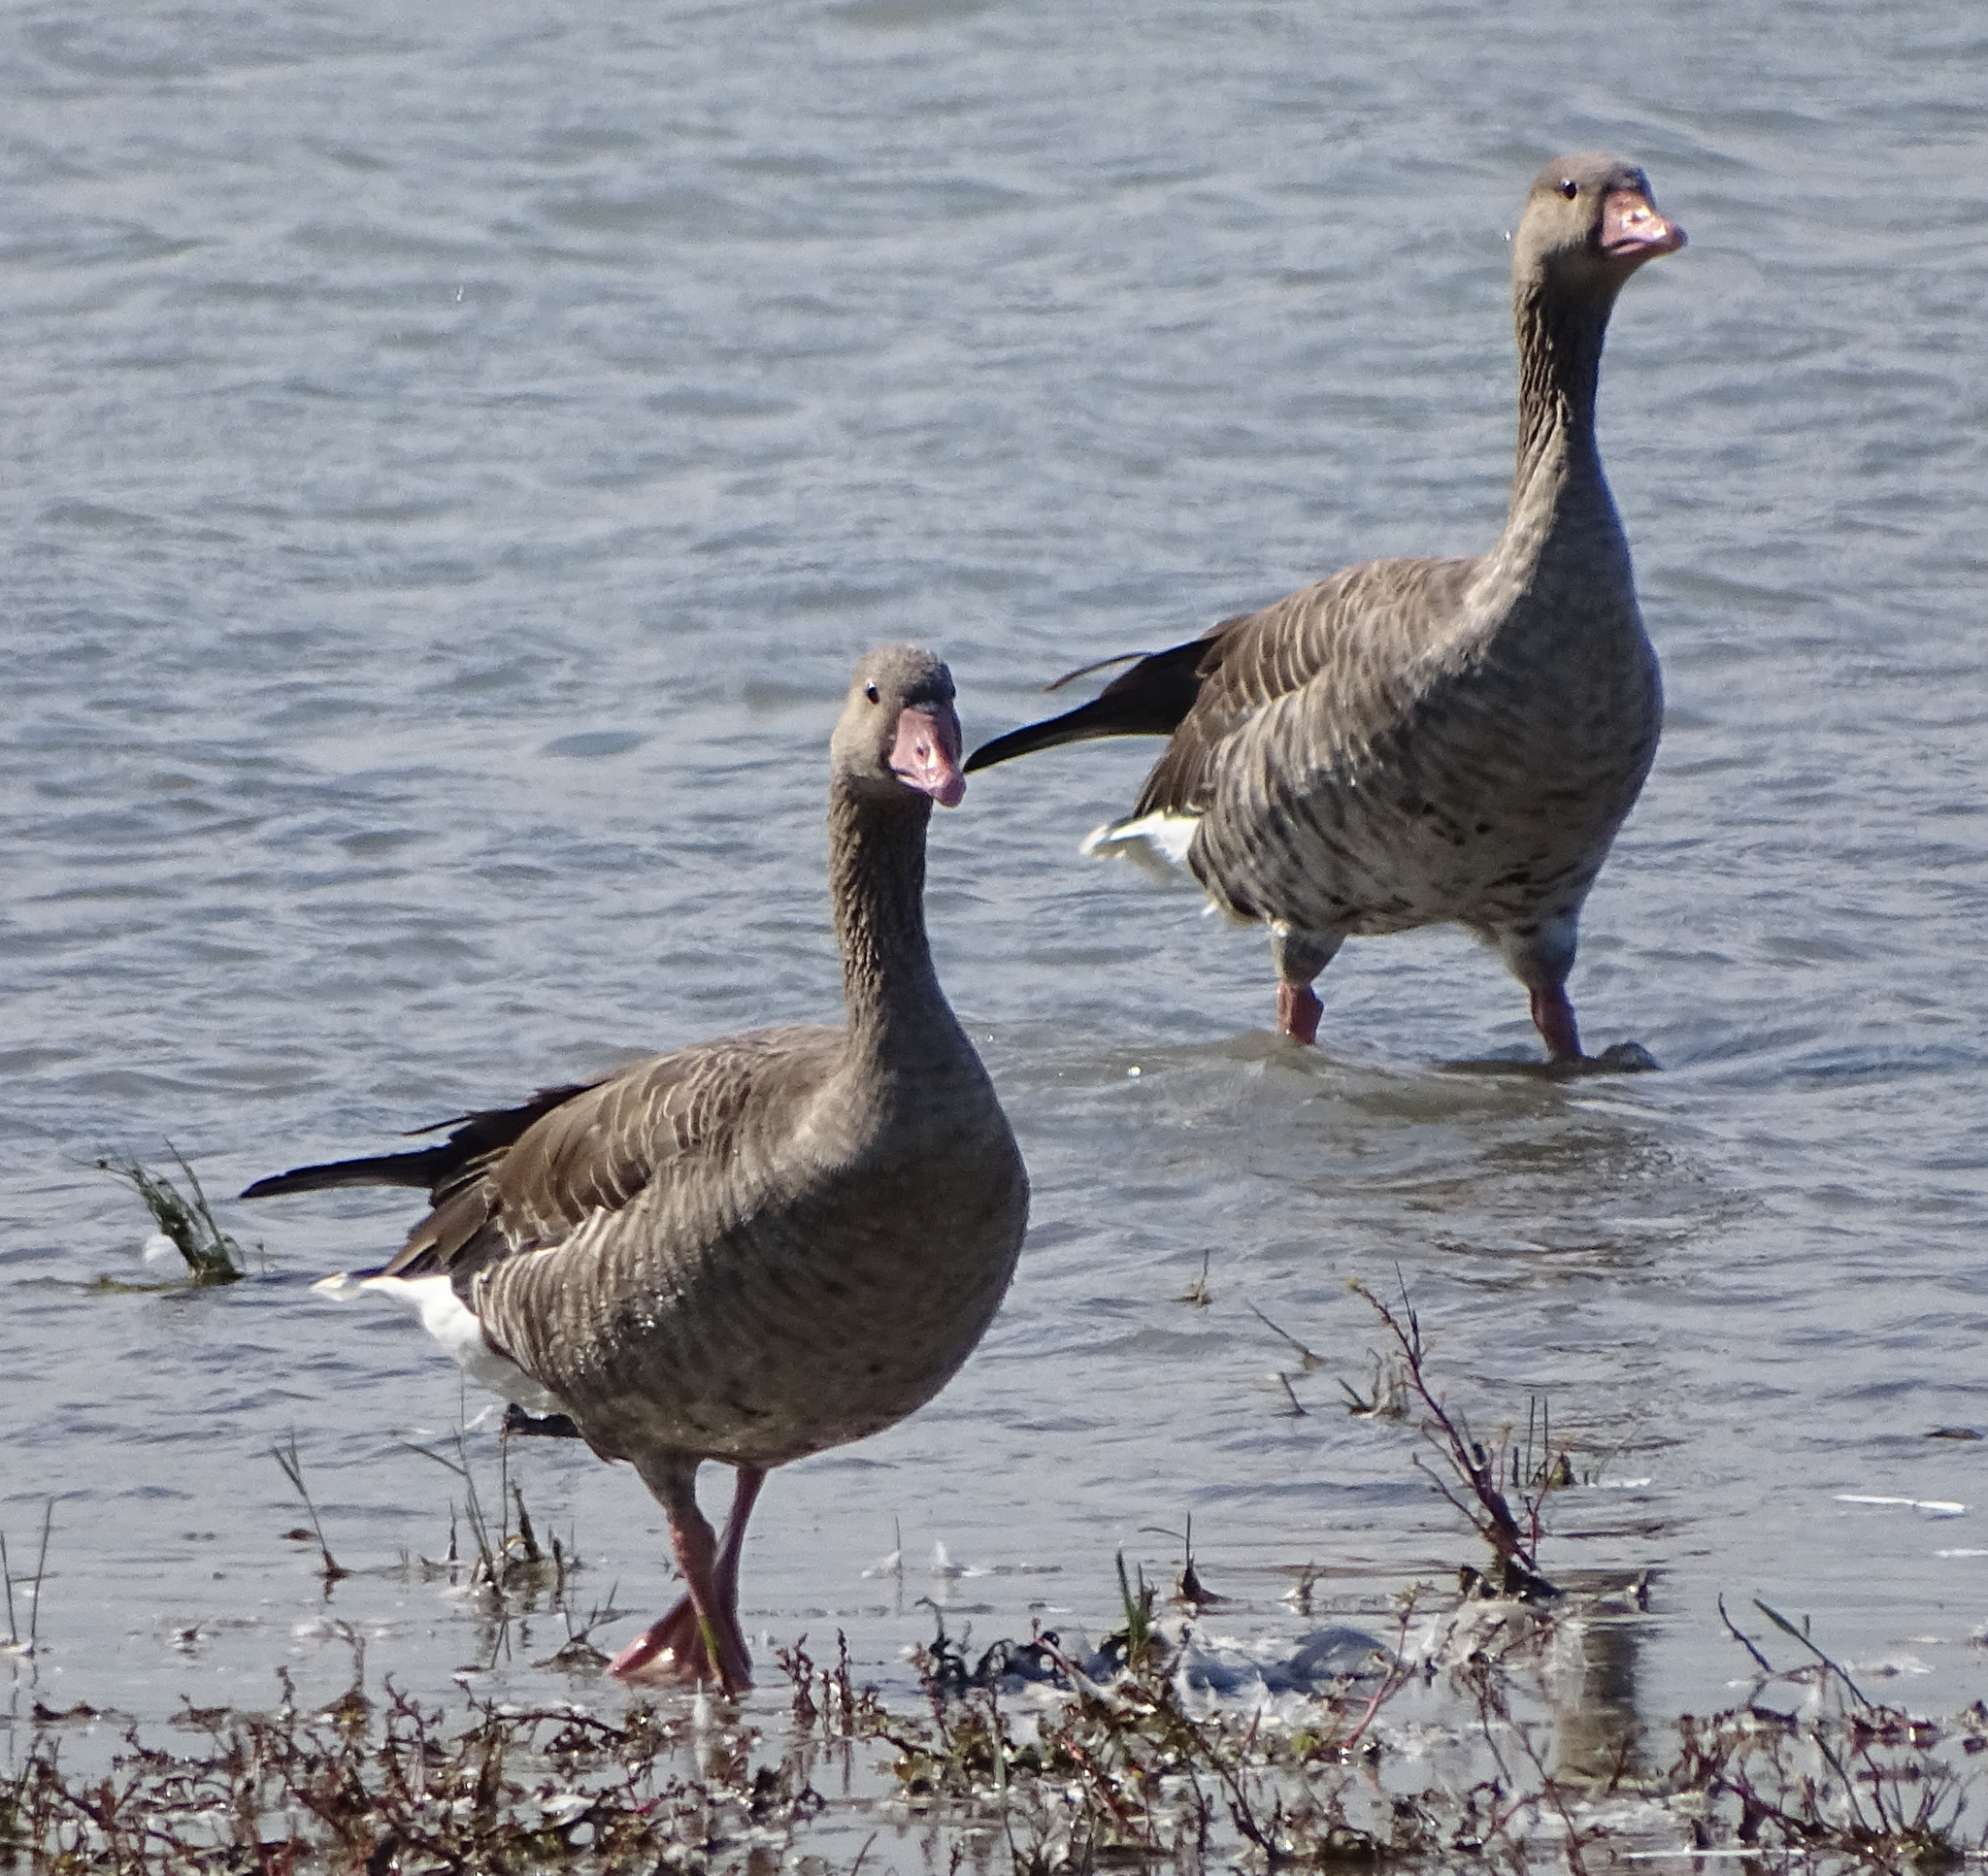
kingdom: Animalia
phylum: Chordata
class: Aves
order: Anseriformes
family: Anatidae
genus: Anser
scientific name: Anser anser
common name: Greylag goose
